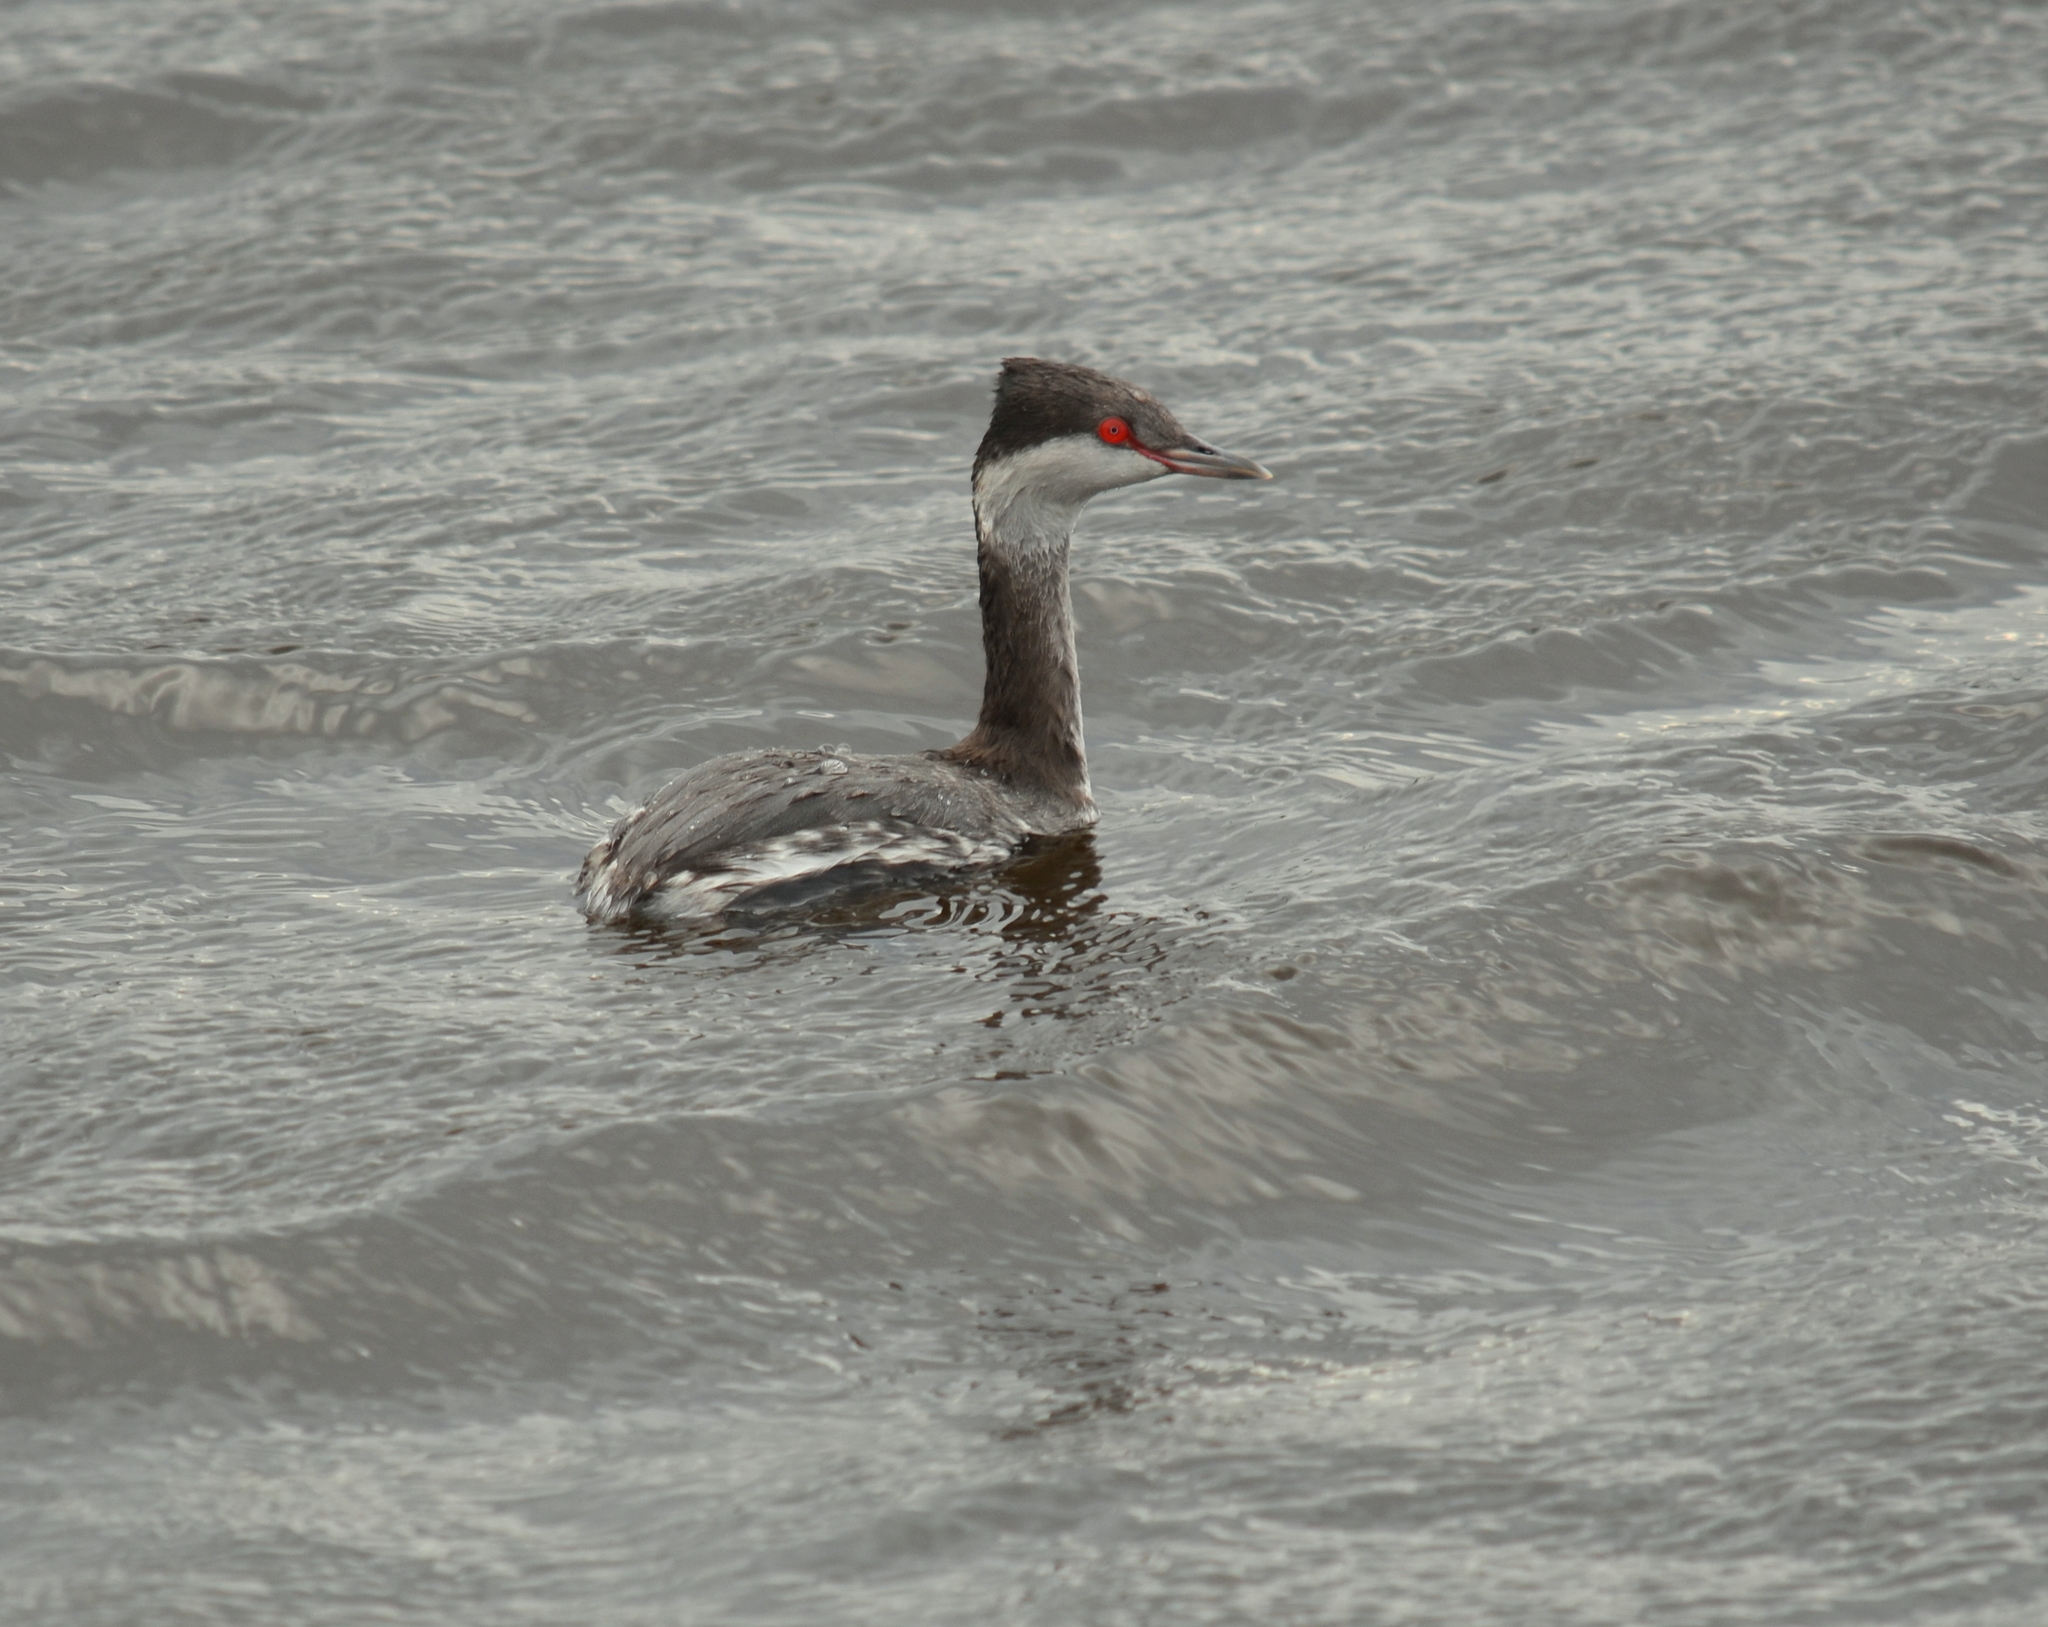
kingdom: Animalia
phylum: Chordata
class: Aves
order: Podicipediformes
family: Podicipedidae
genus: Podiceps
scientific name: Podiceps auritus
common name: Horned grebe
